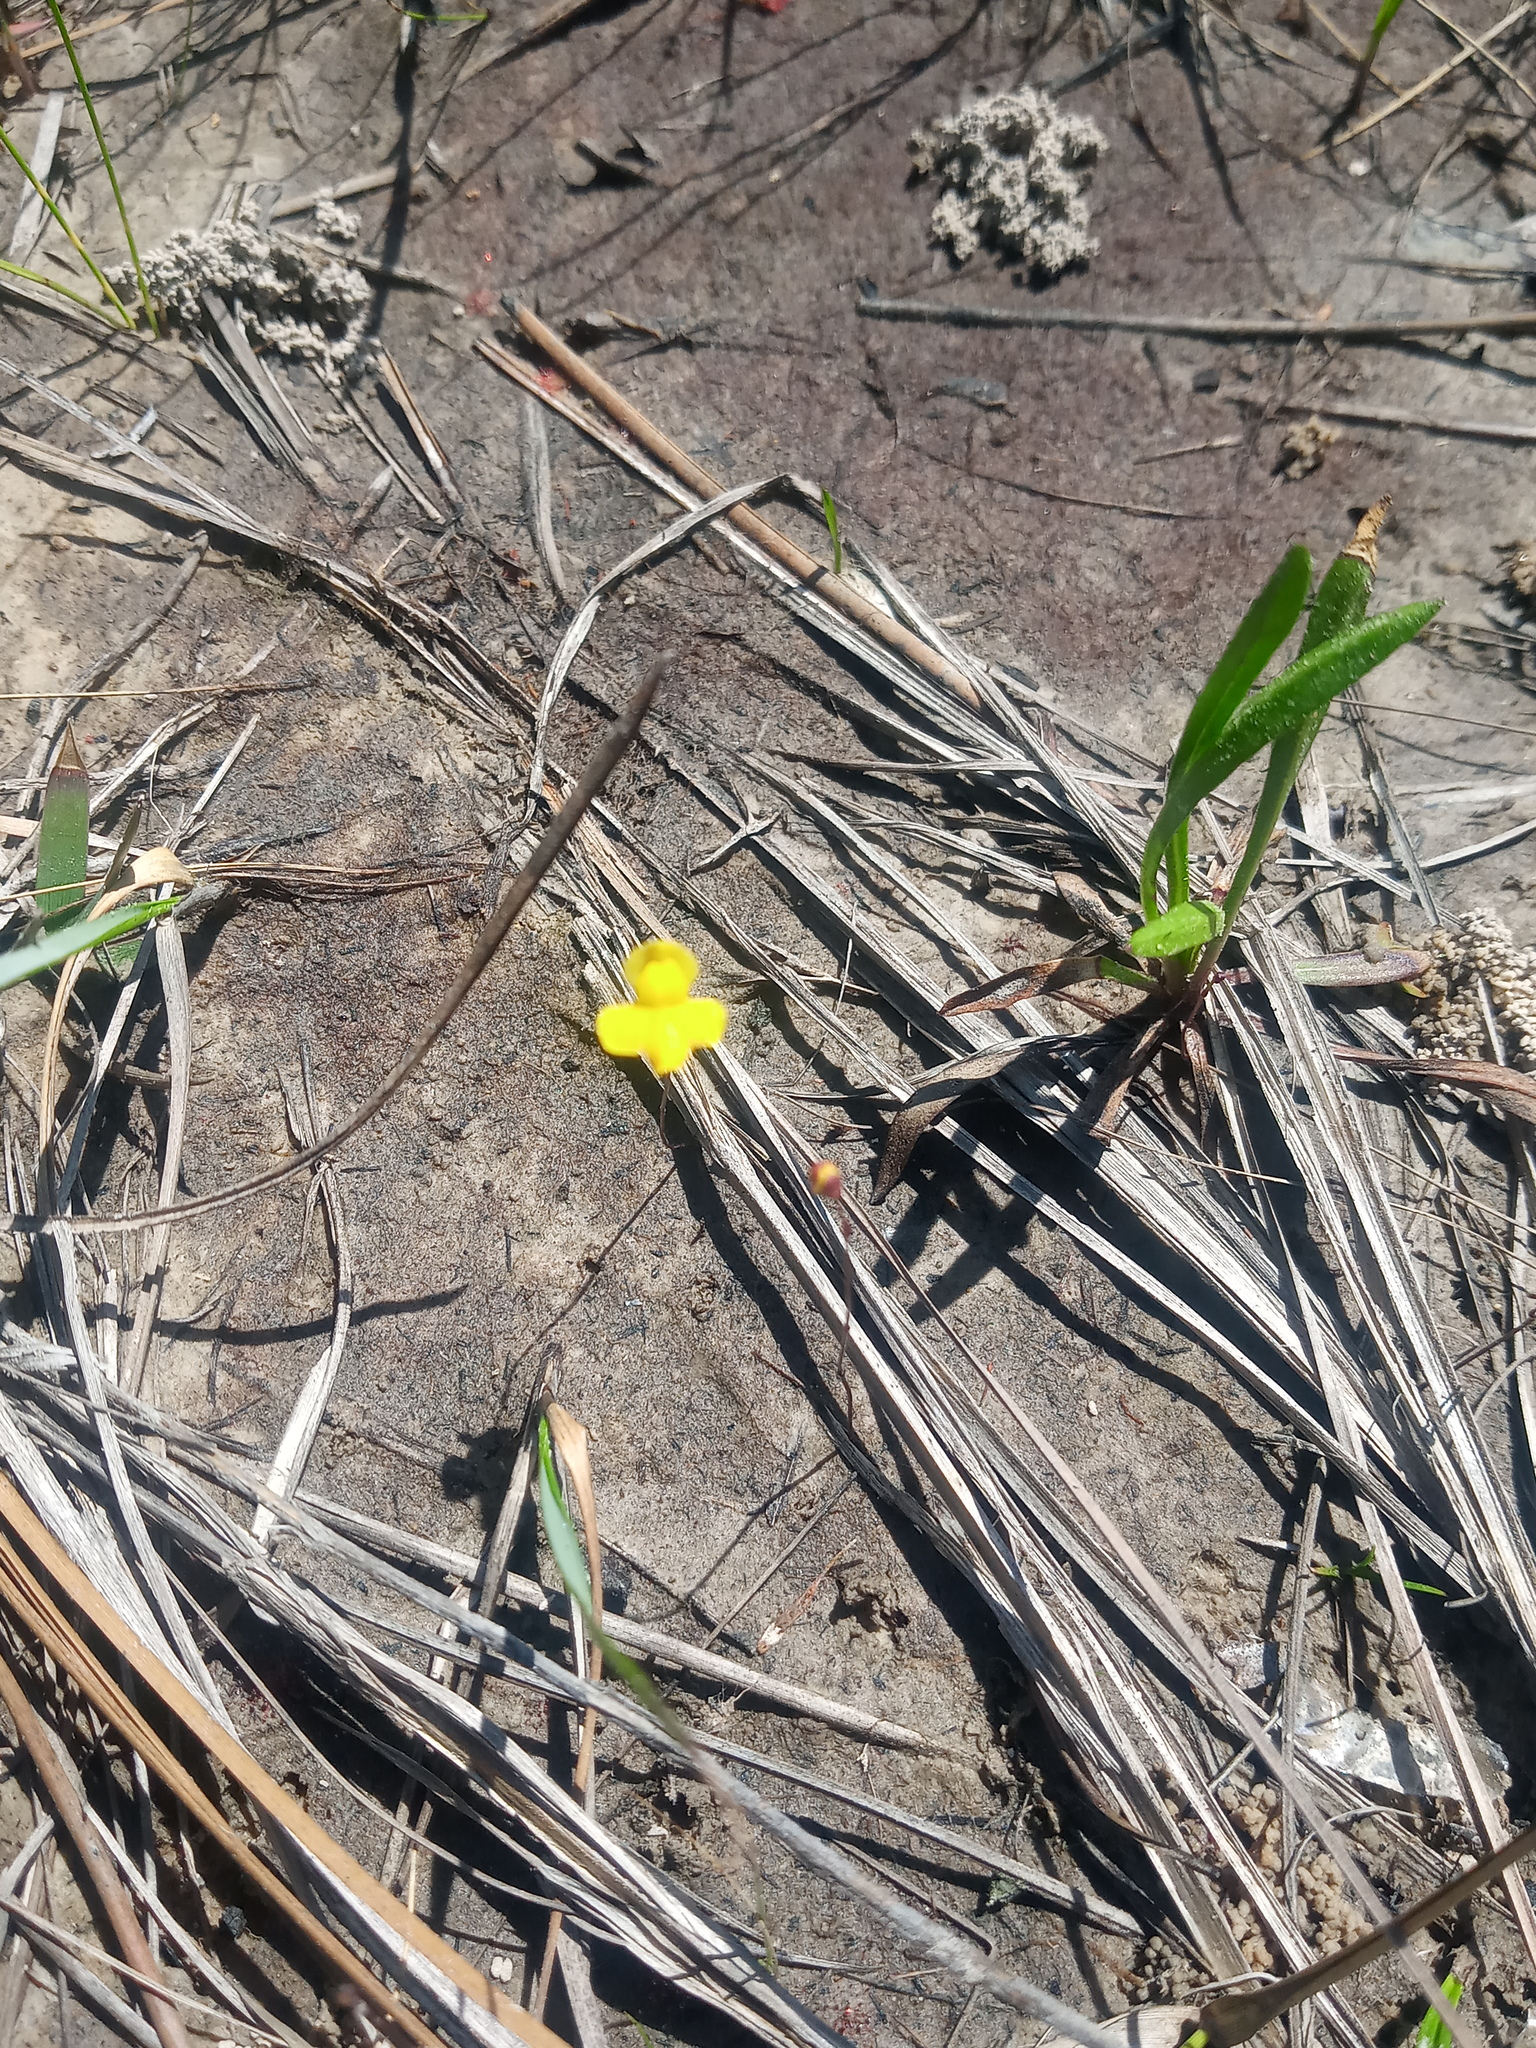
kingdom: Plantae
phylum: Tracheophyta
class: Magnoliopsida
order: Lamiales
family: Lentibulariaceae
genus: Utricularia
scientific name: Utricularia subulata
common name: Tiny bladderwort
